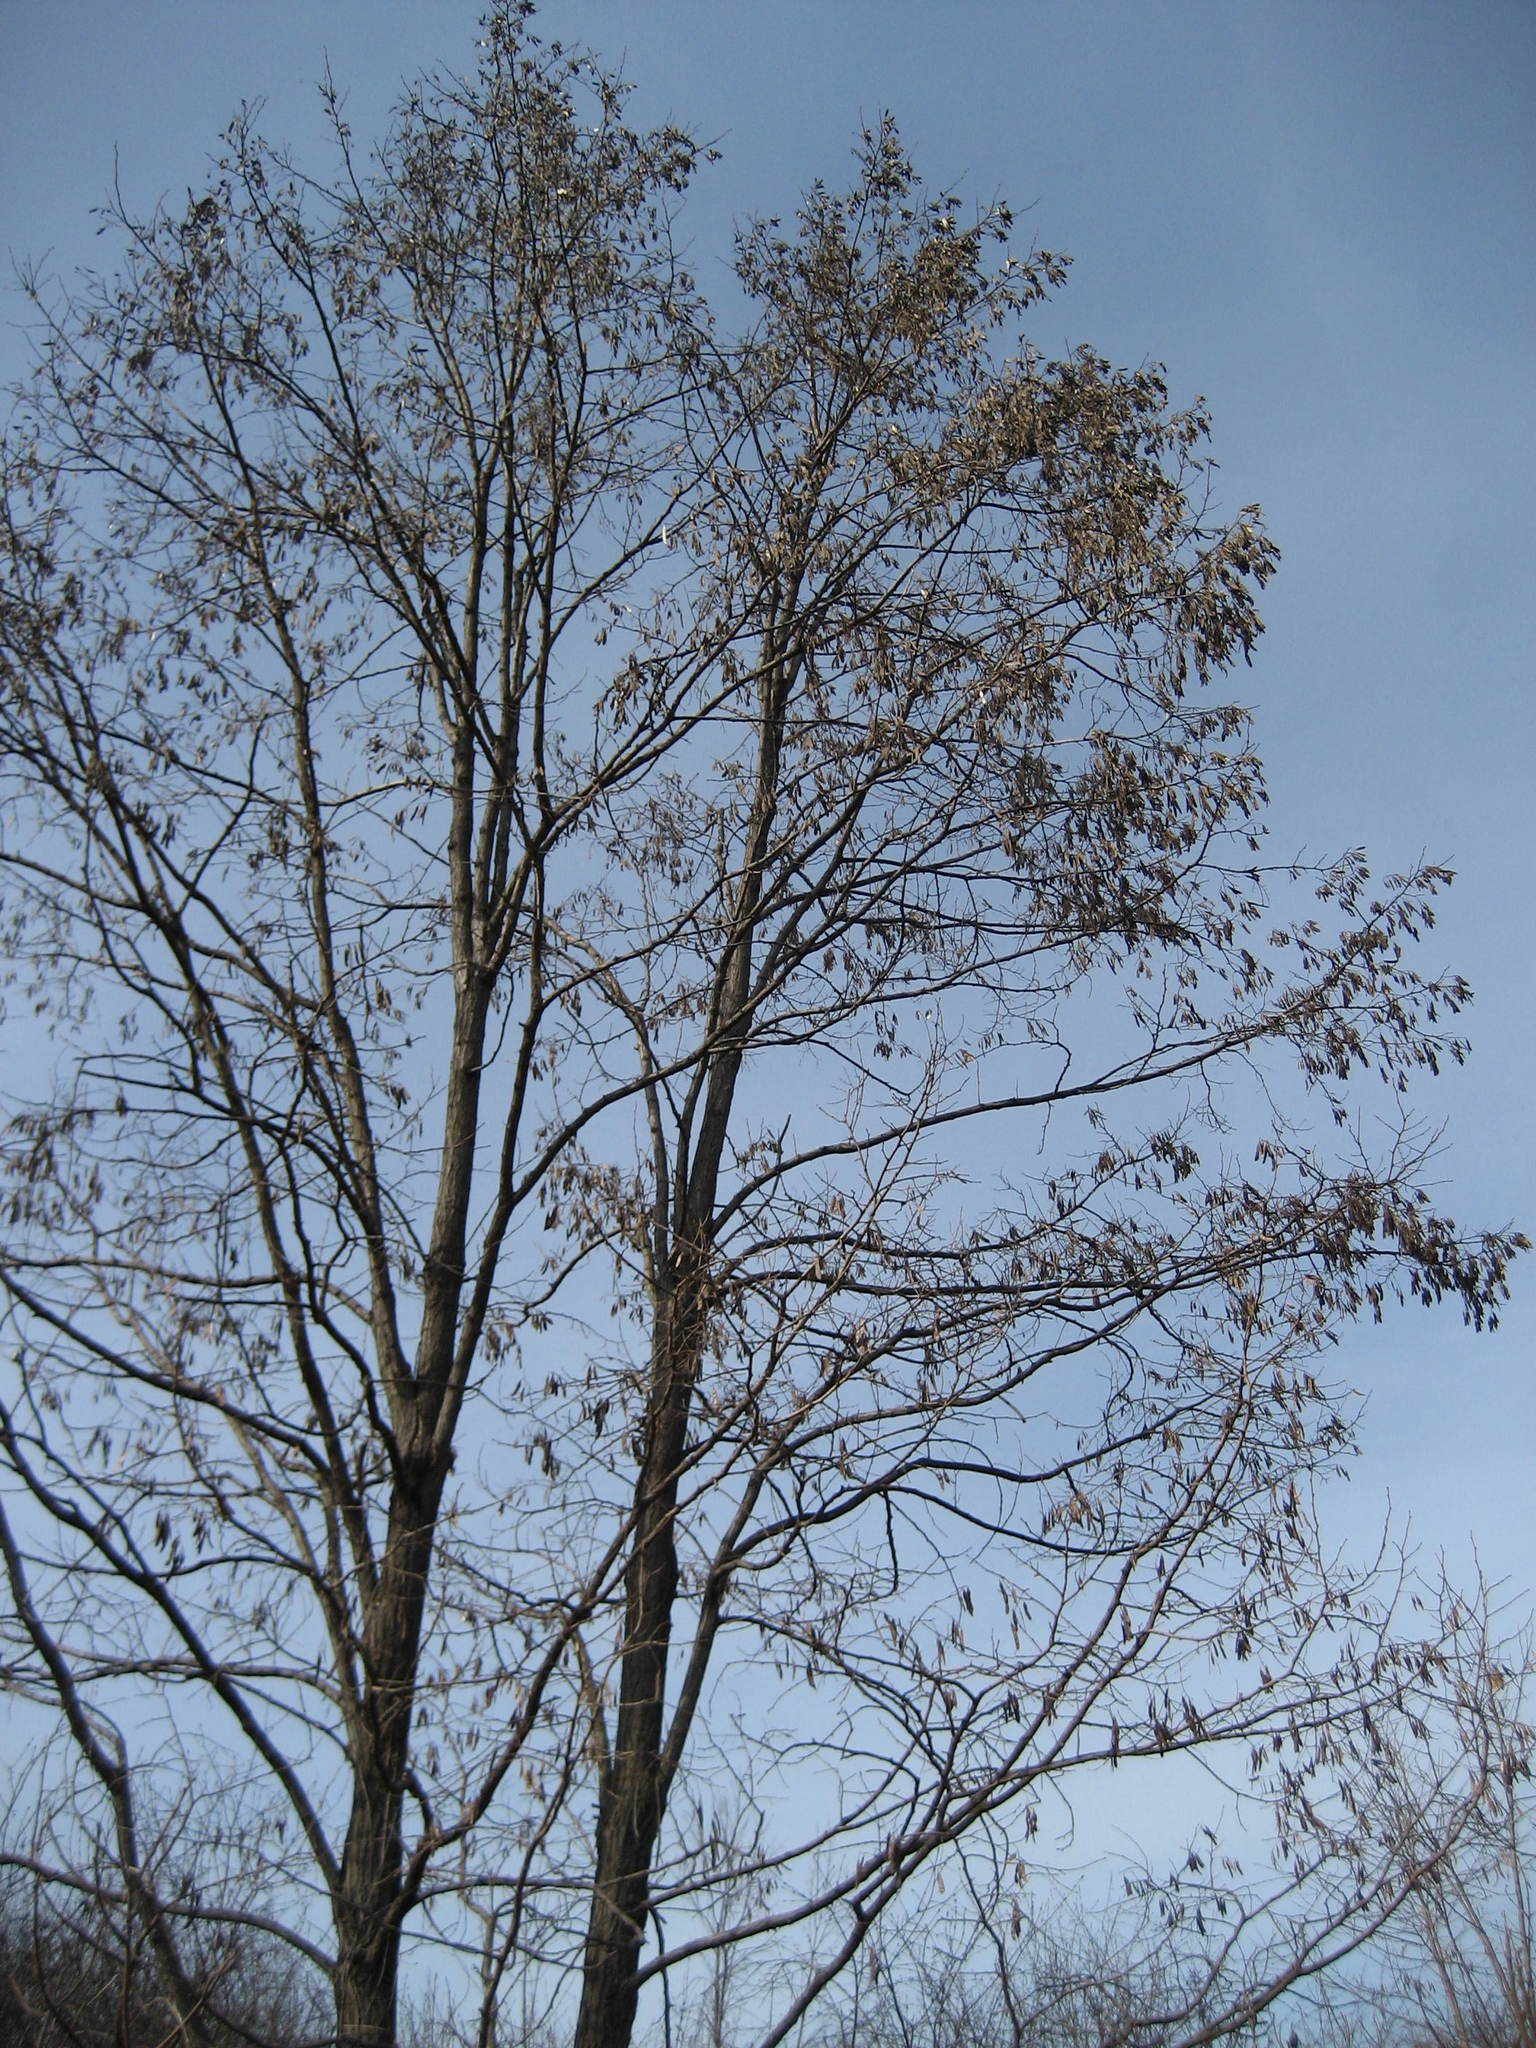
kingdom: Plantae
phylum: Tracheophyta
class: Magnoliopsida
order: Fabales
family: Fabaceae
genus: Robinia
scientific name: Robinia pseudoacacia
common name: Black locust
